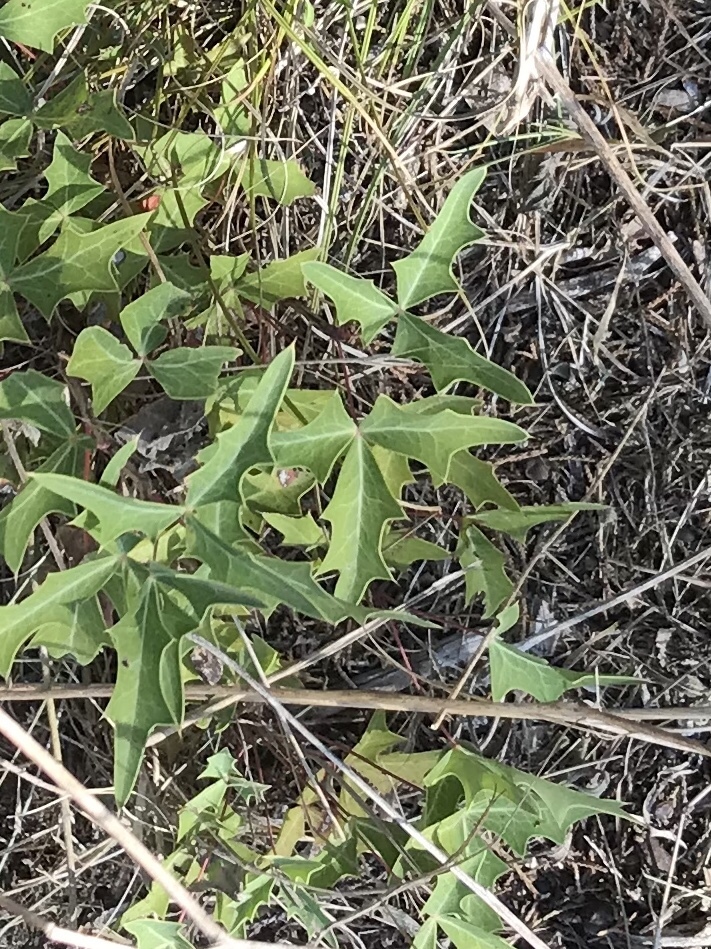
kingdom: Plantae
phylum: Tracheophyta
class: Magnoliopsida
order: Ranunculales
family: Berberidaceae
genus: Alloberberis
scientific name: Alloberberis trifoliolata
